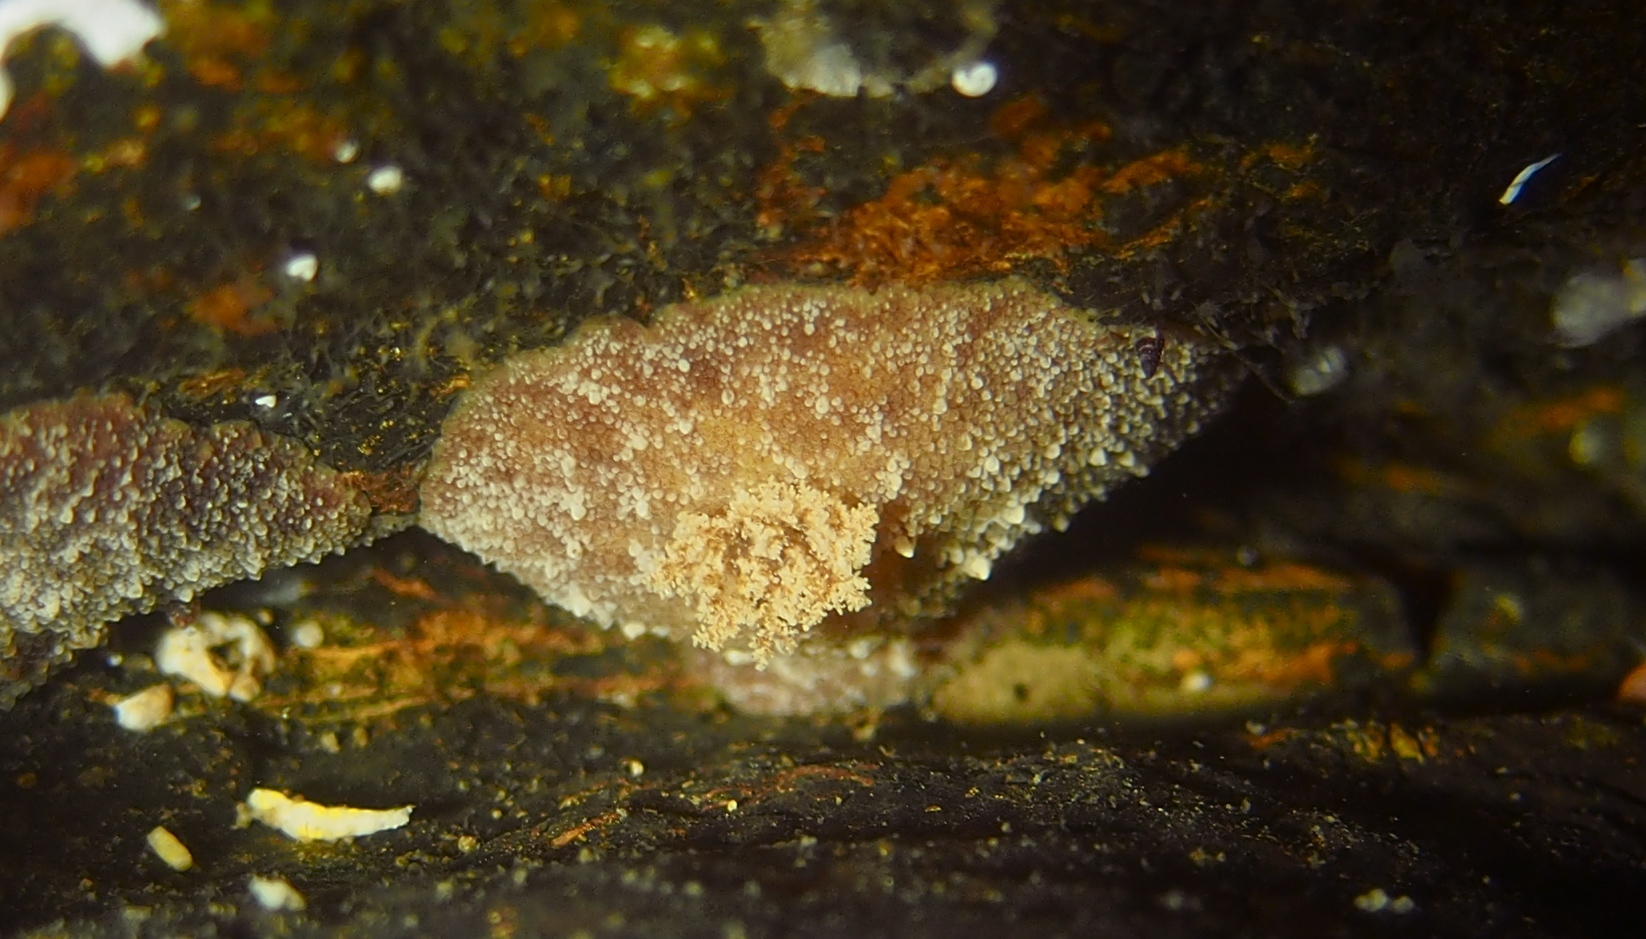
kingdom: Animalia
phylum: Mollusca
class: Gastropoda
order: Nudibranchia
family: Discodorididae
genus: Geitodoris
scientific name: Geitodoris planata
